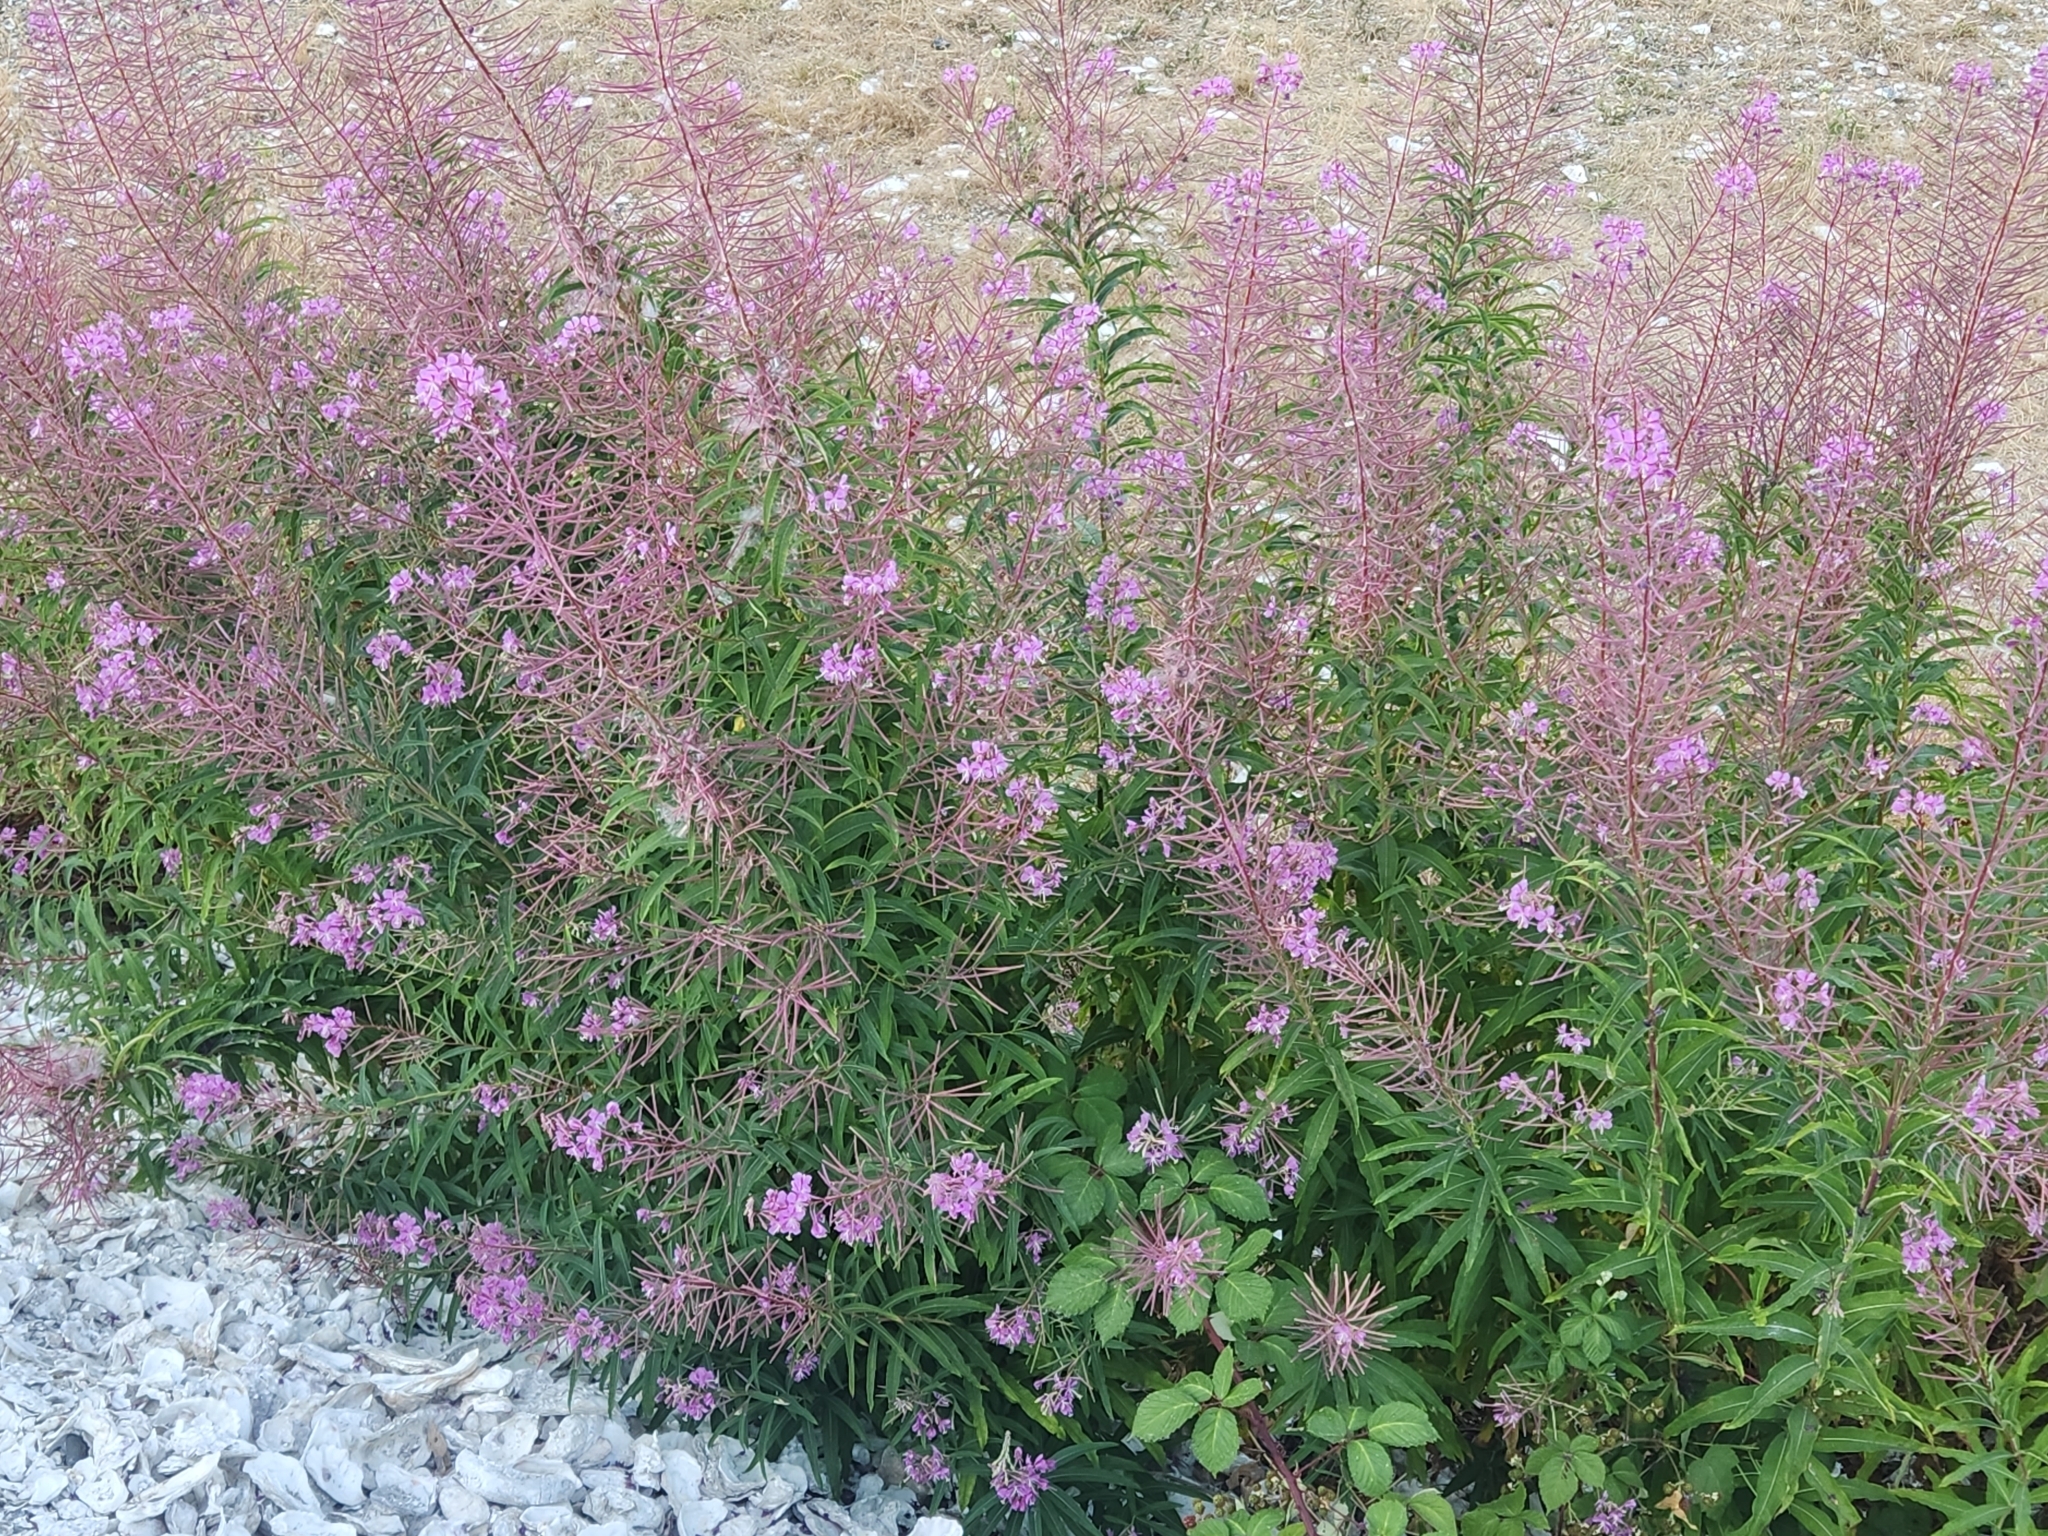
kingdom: Plantae
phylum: Tracheophyta
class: Magnoliopsida
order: Myrtales
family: Onagraceae
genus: Chamaenerion
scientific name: Chamaenerion angustifolium
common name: Fireweed
